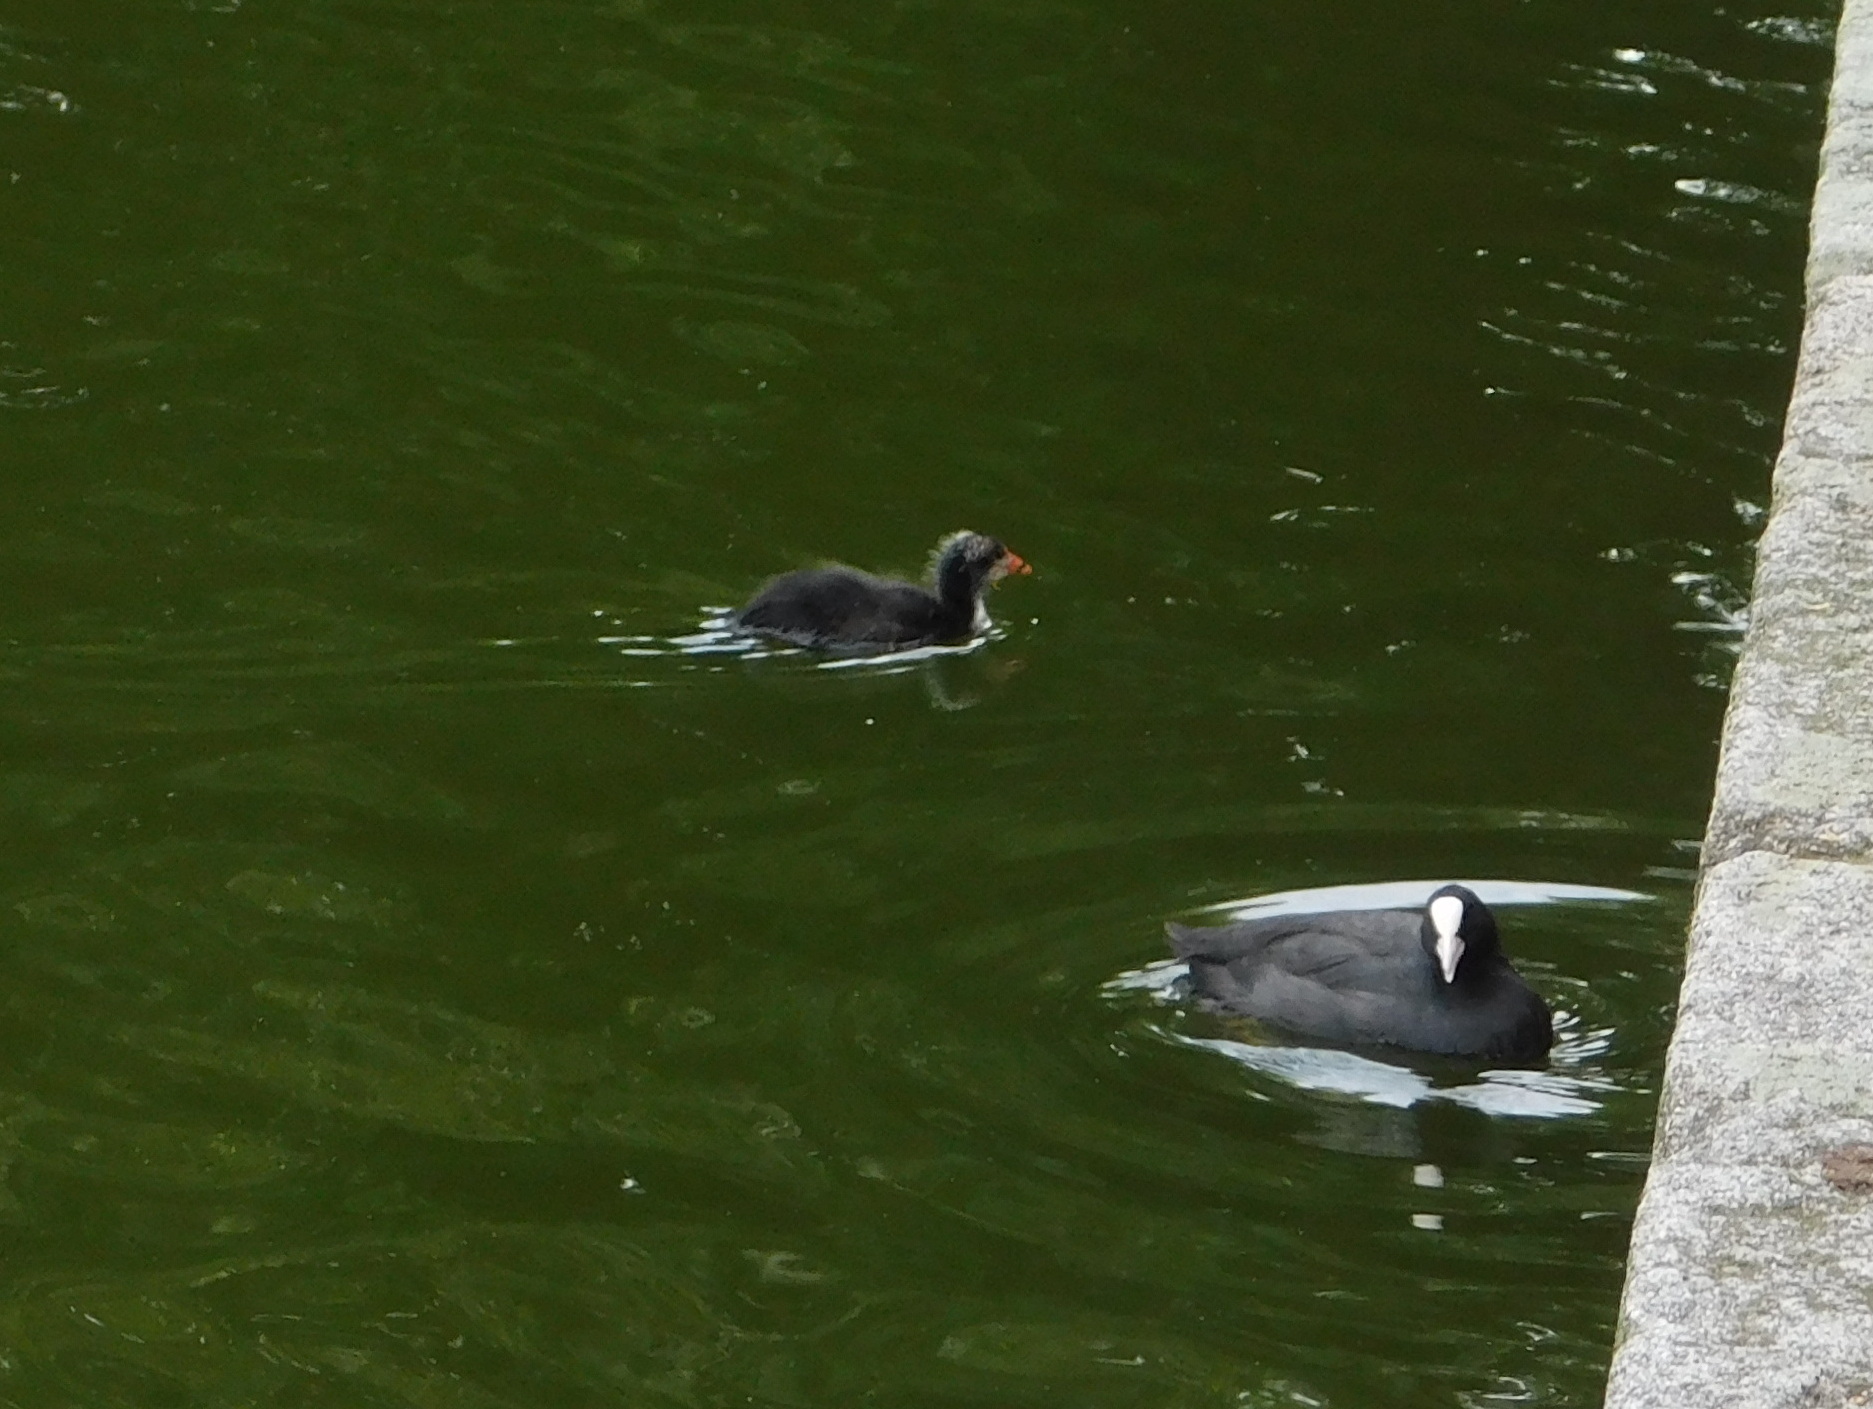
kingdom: Animalia
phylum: Chordata
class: Aves
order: Gruiformes
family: Rallidae
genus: Fulica
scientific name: Fulica atra
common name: Eurasian coot
